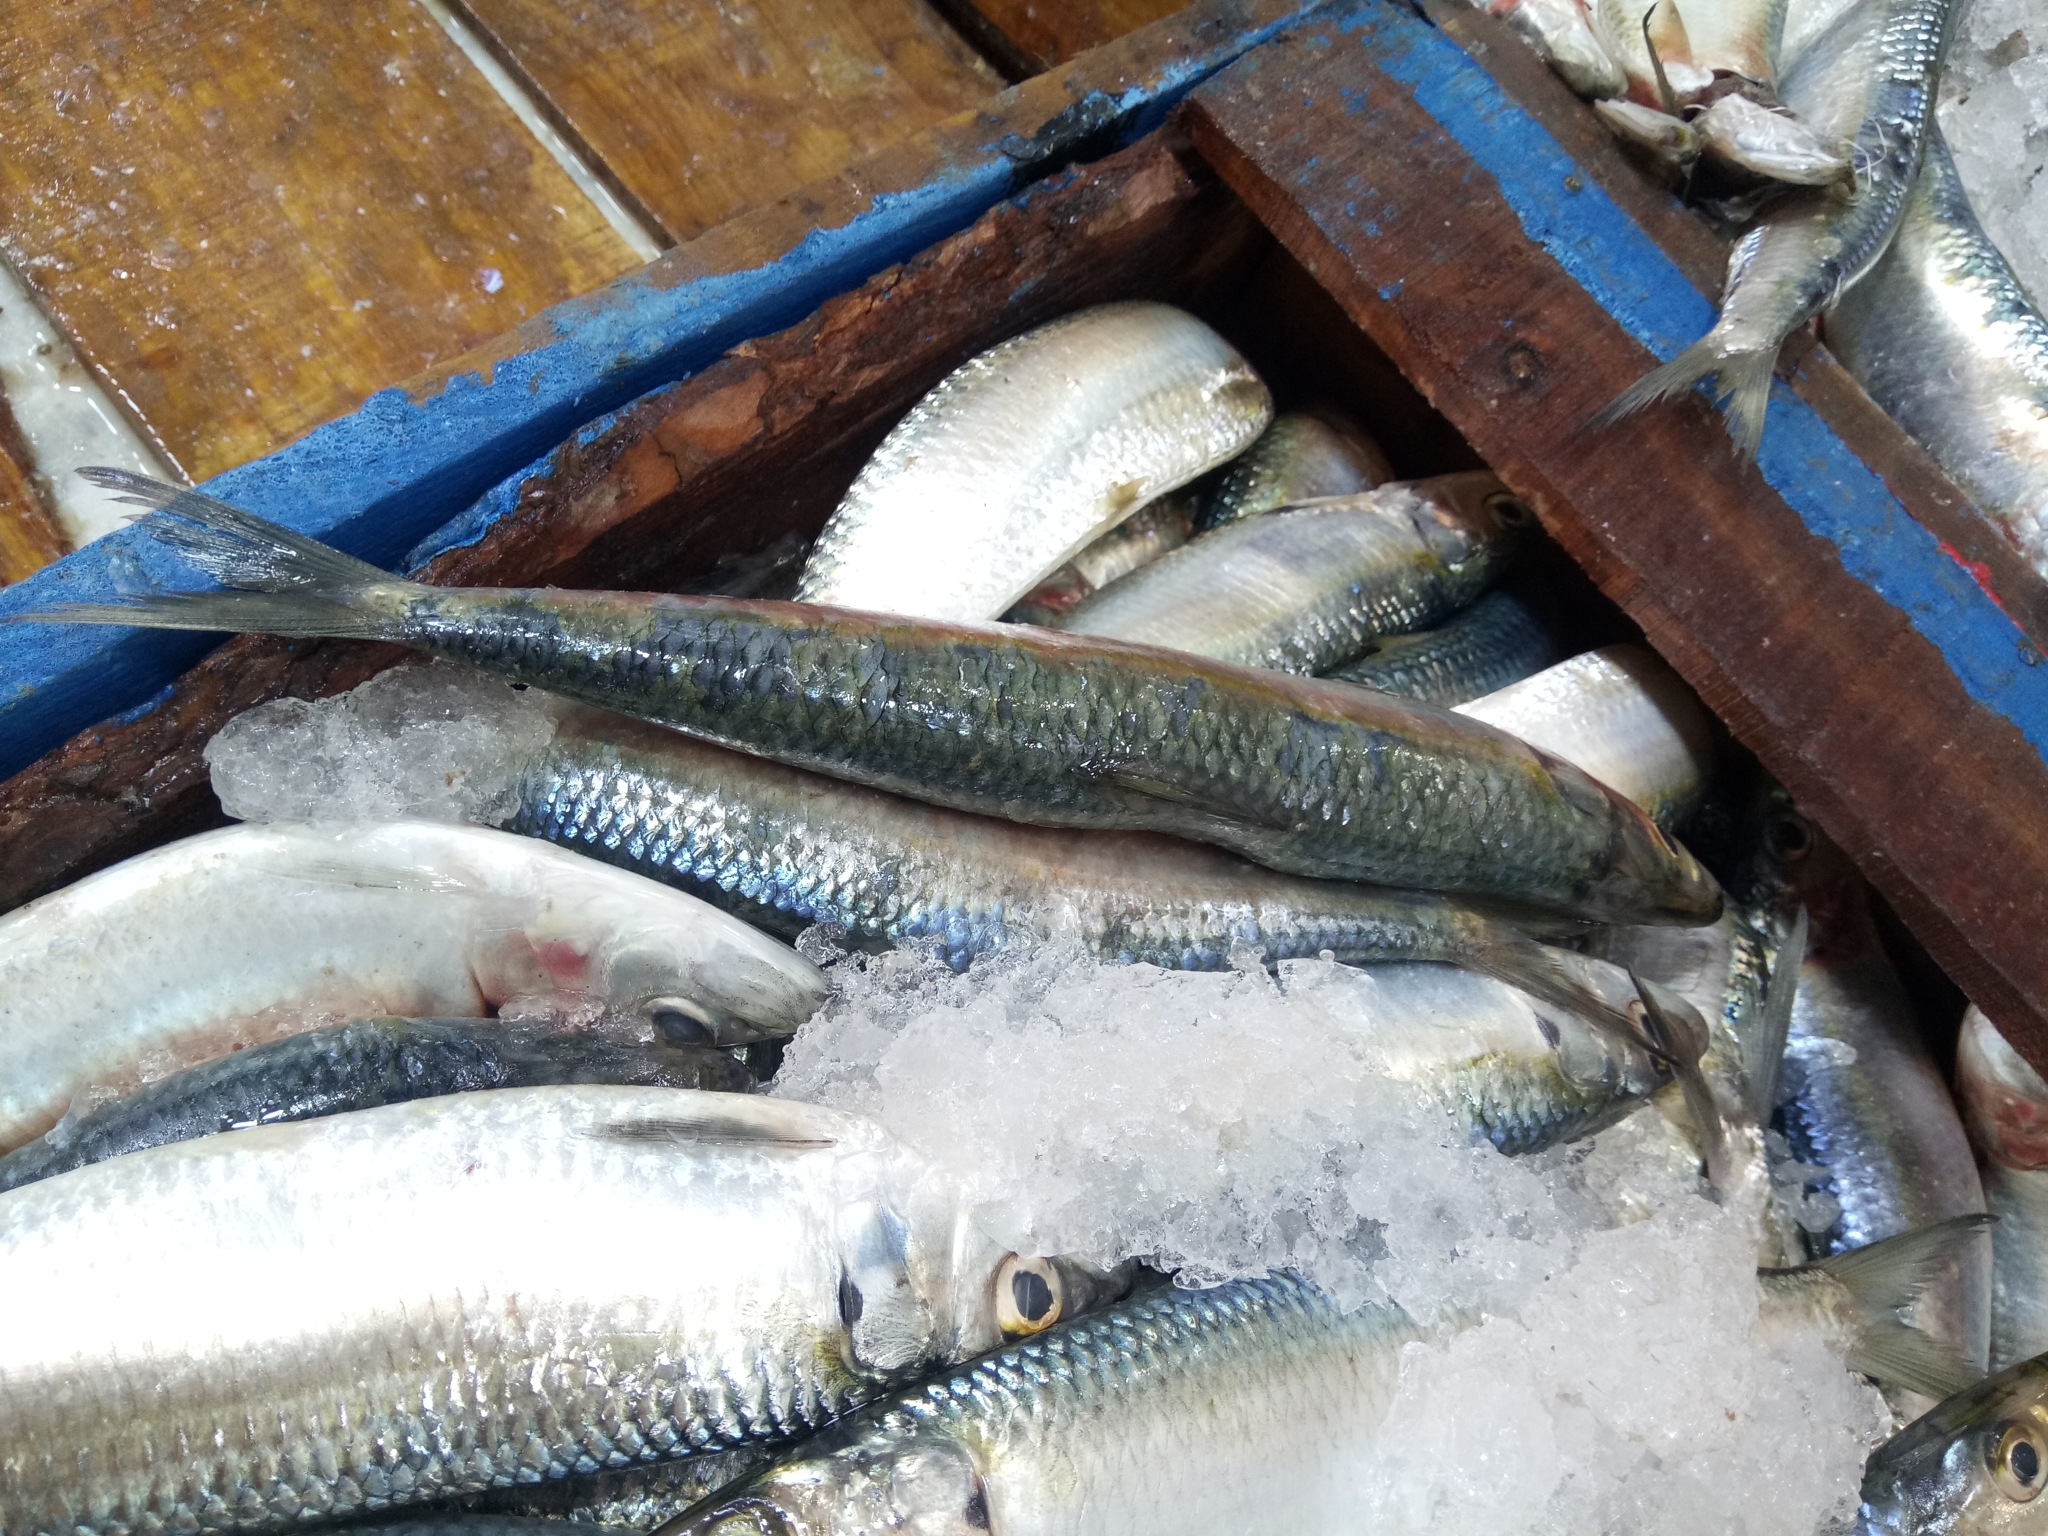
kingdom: Animalia
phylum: Chordata
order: Clupeiformes
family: Clupeidae
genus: Sardinella
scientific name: Sardinella aurita
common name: Round sardinella
